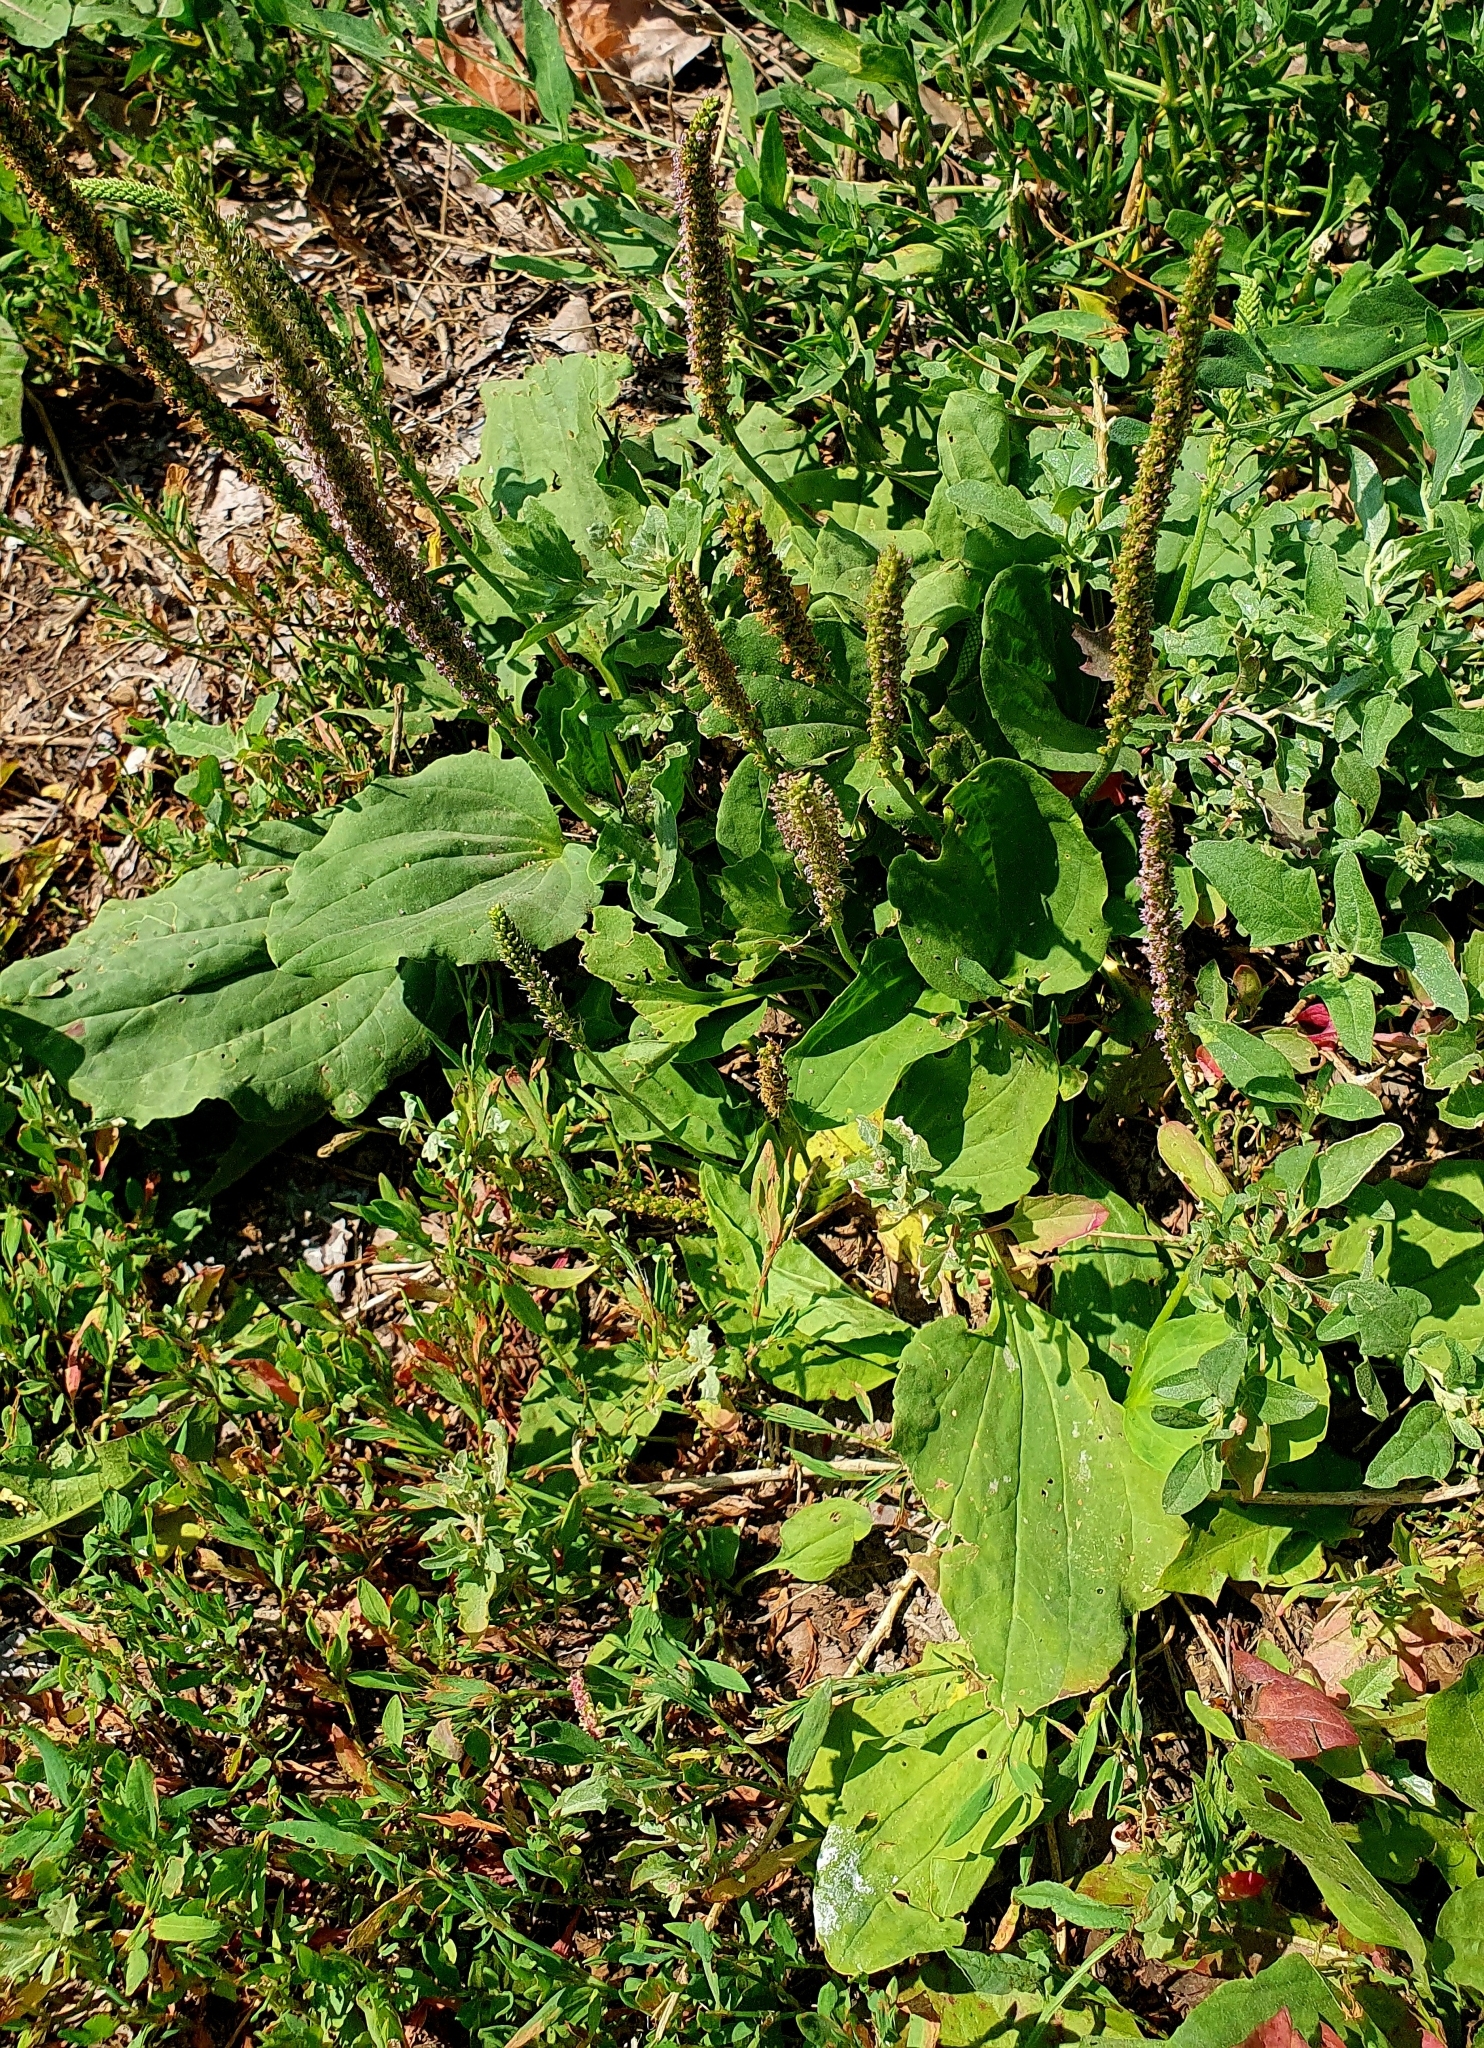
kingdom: Plantae
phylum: Tracheophyta
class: Magnoliopsida
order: Lamiales
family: Plantaginaceae
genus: Plantago
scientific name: Plantago major
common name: Common plantain
